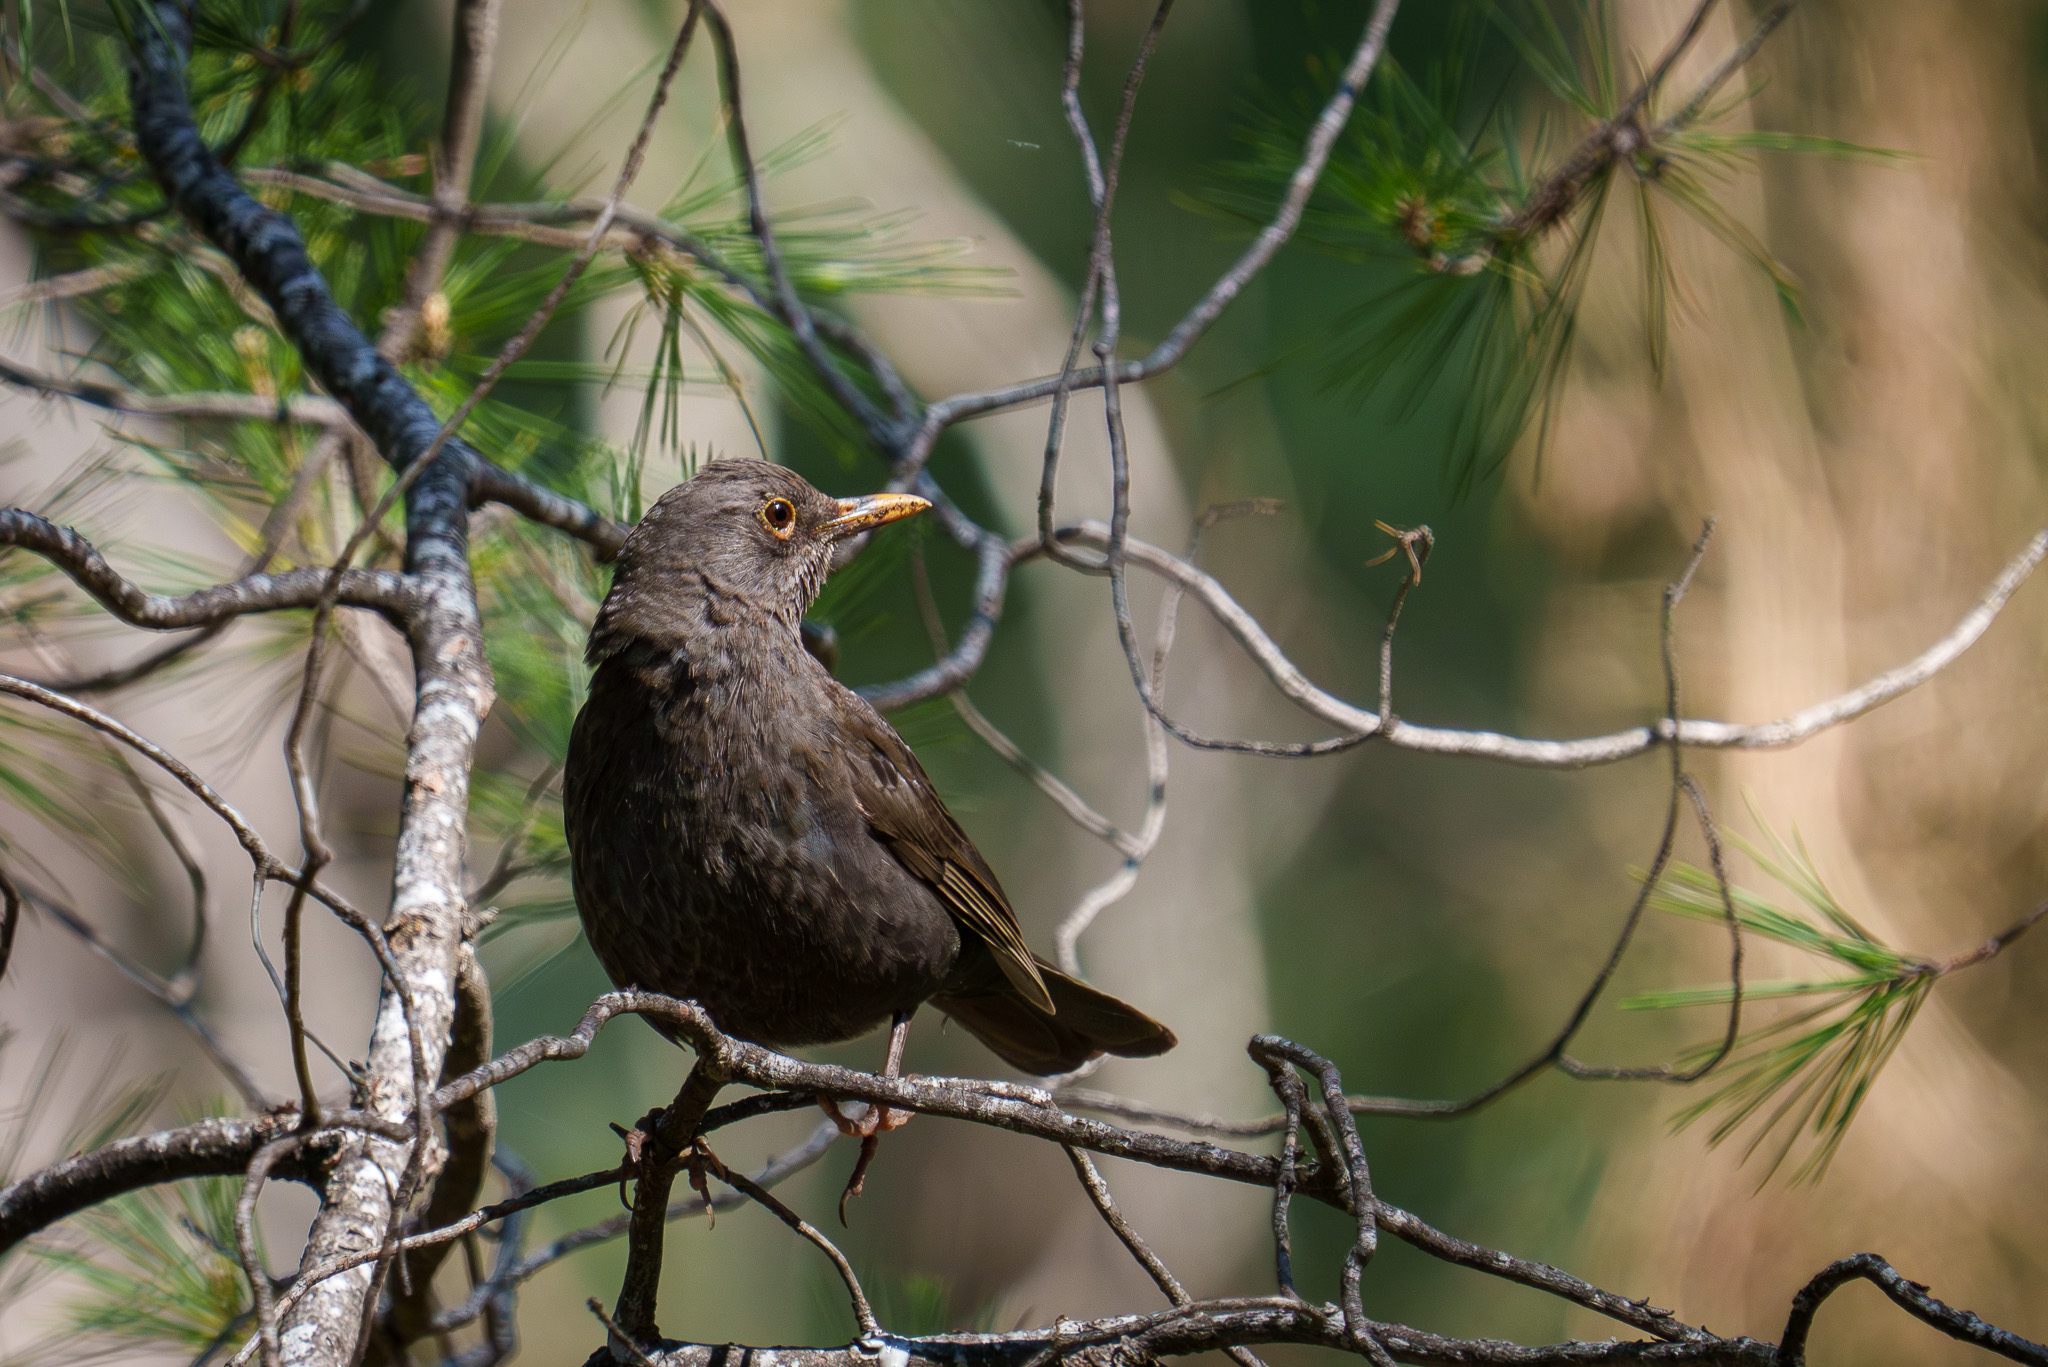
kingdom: Animalia
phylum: Chordata
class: Aves
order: Passeriformes
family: Turdidae
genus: Turdus
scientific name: Turdus merula
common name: Common blackbird
